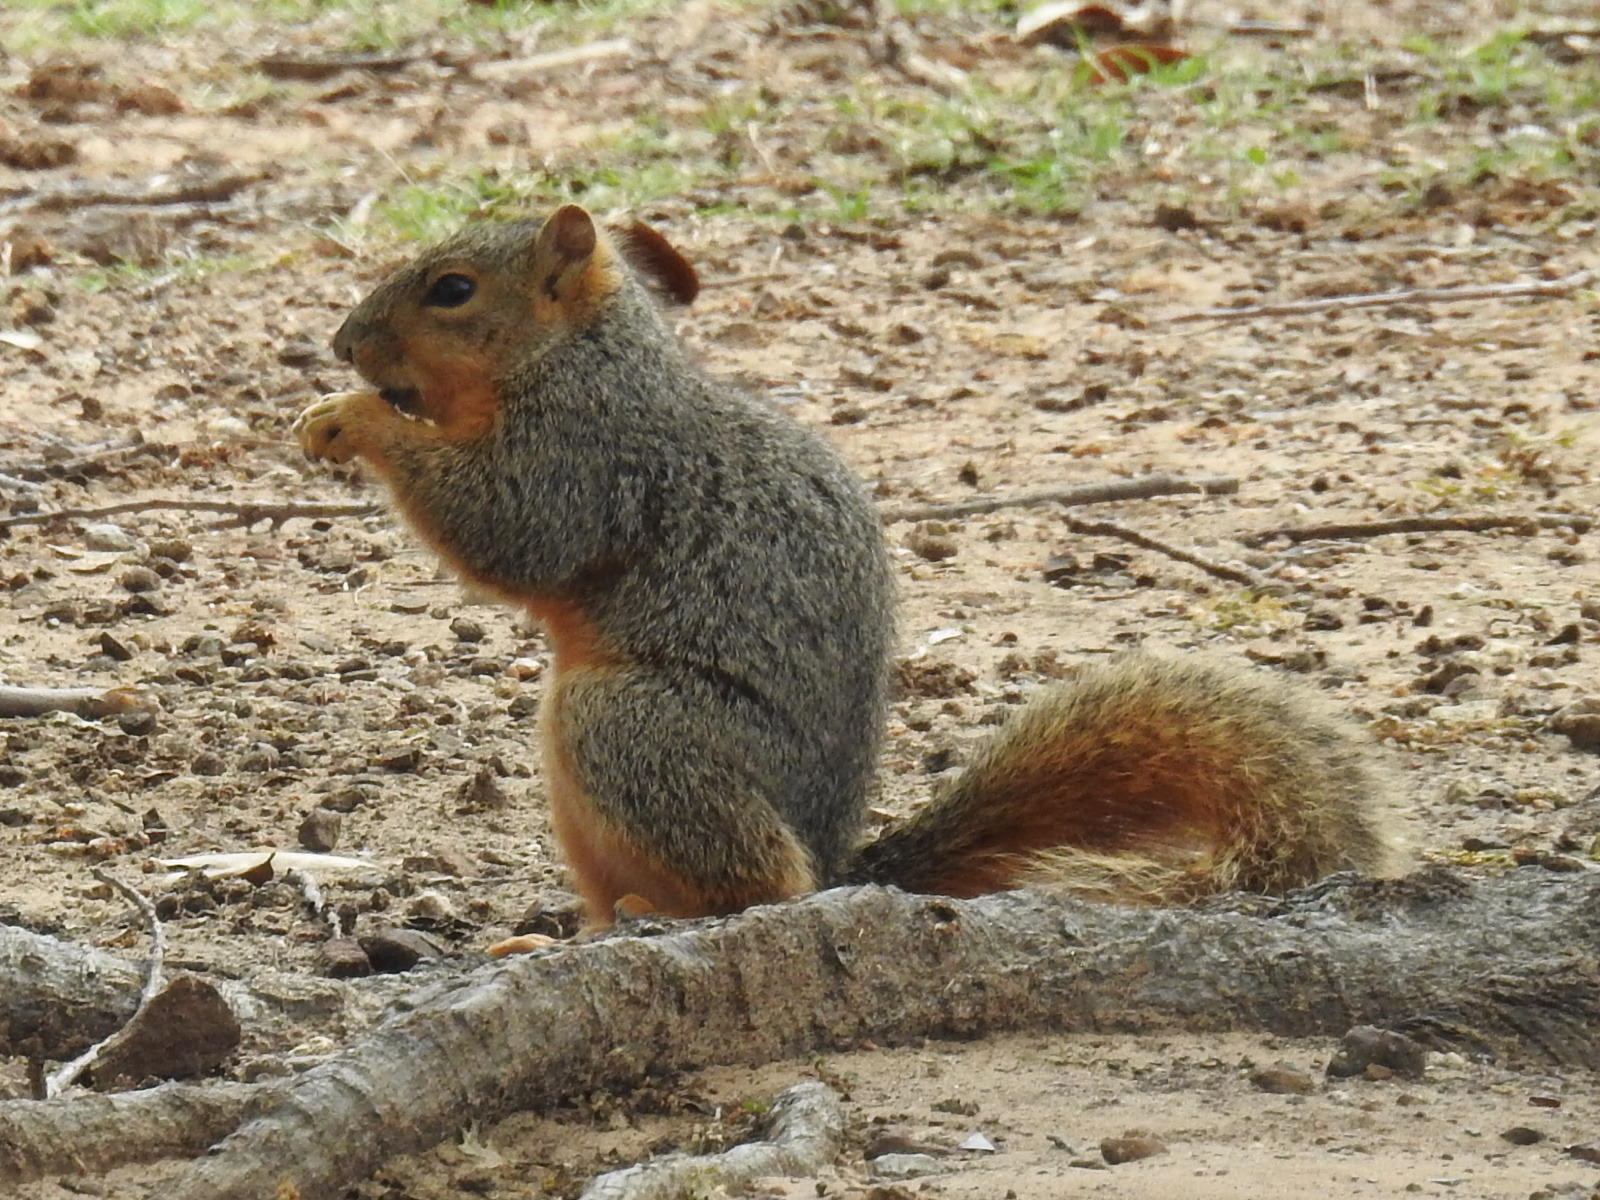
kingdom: Animalia
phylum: Chordata
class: Mammalia
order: Rodentia
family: Sciuridae
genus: Sciurus
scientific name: Sciurus niger
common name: Fox squirrel
